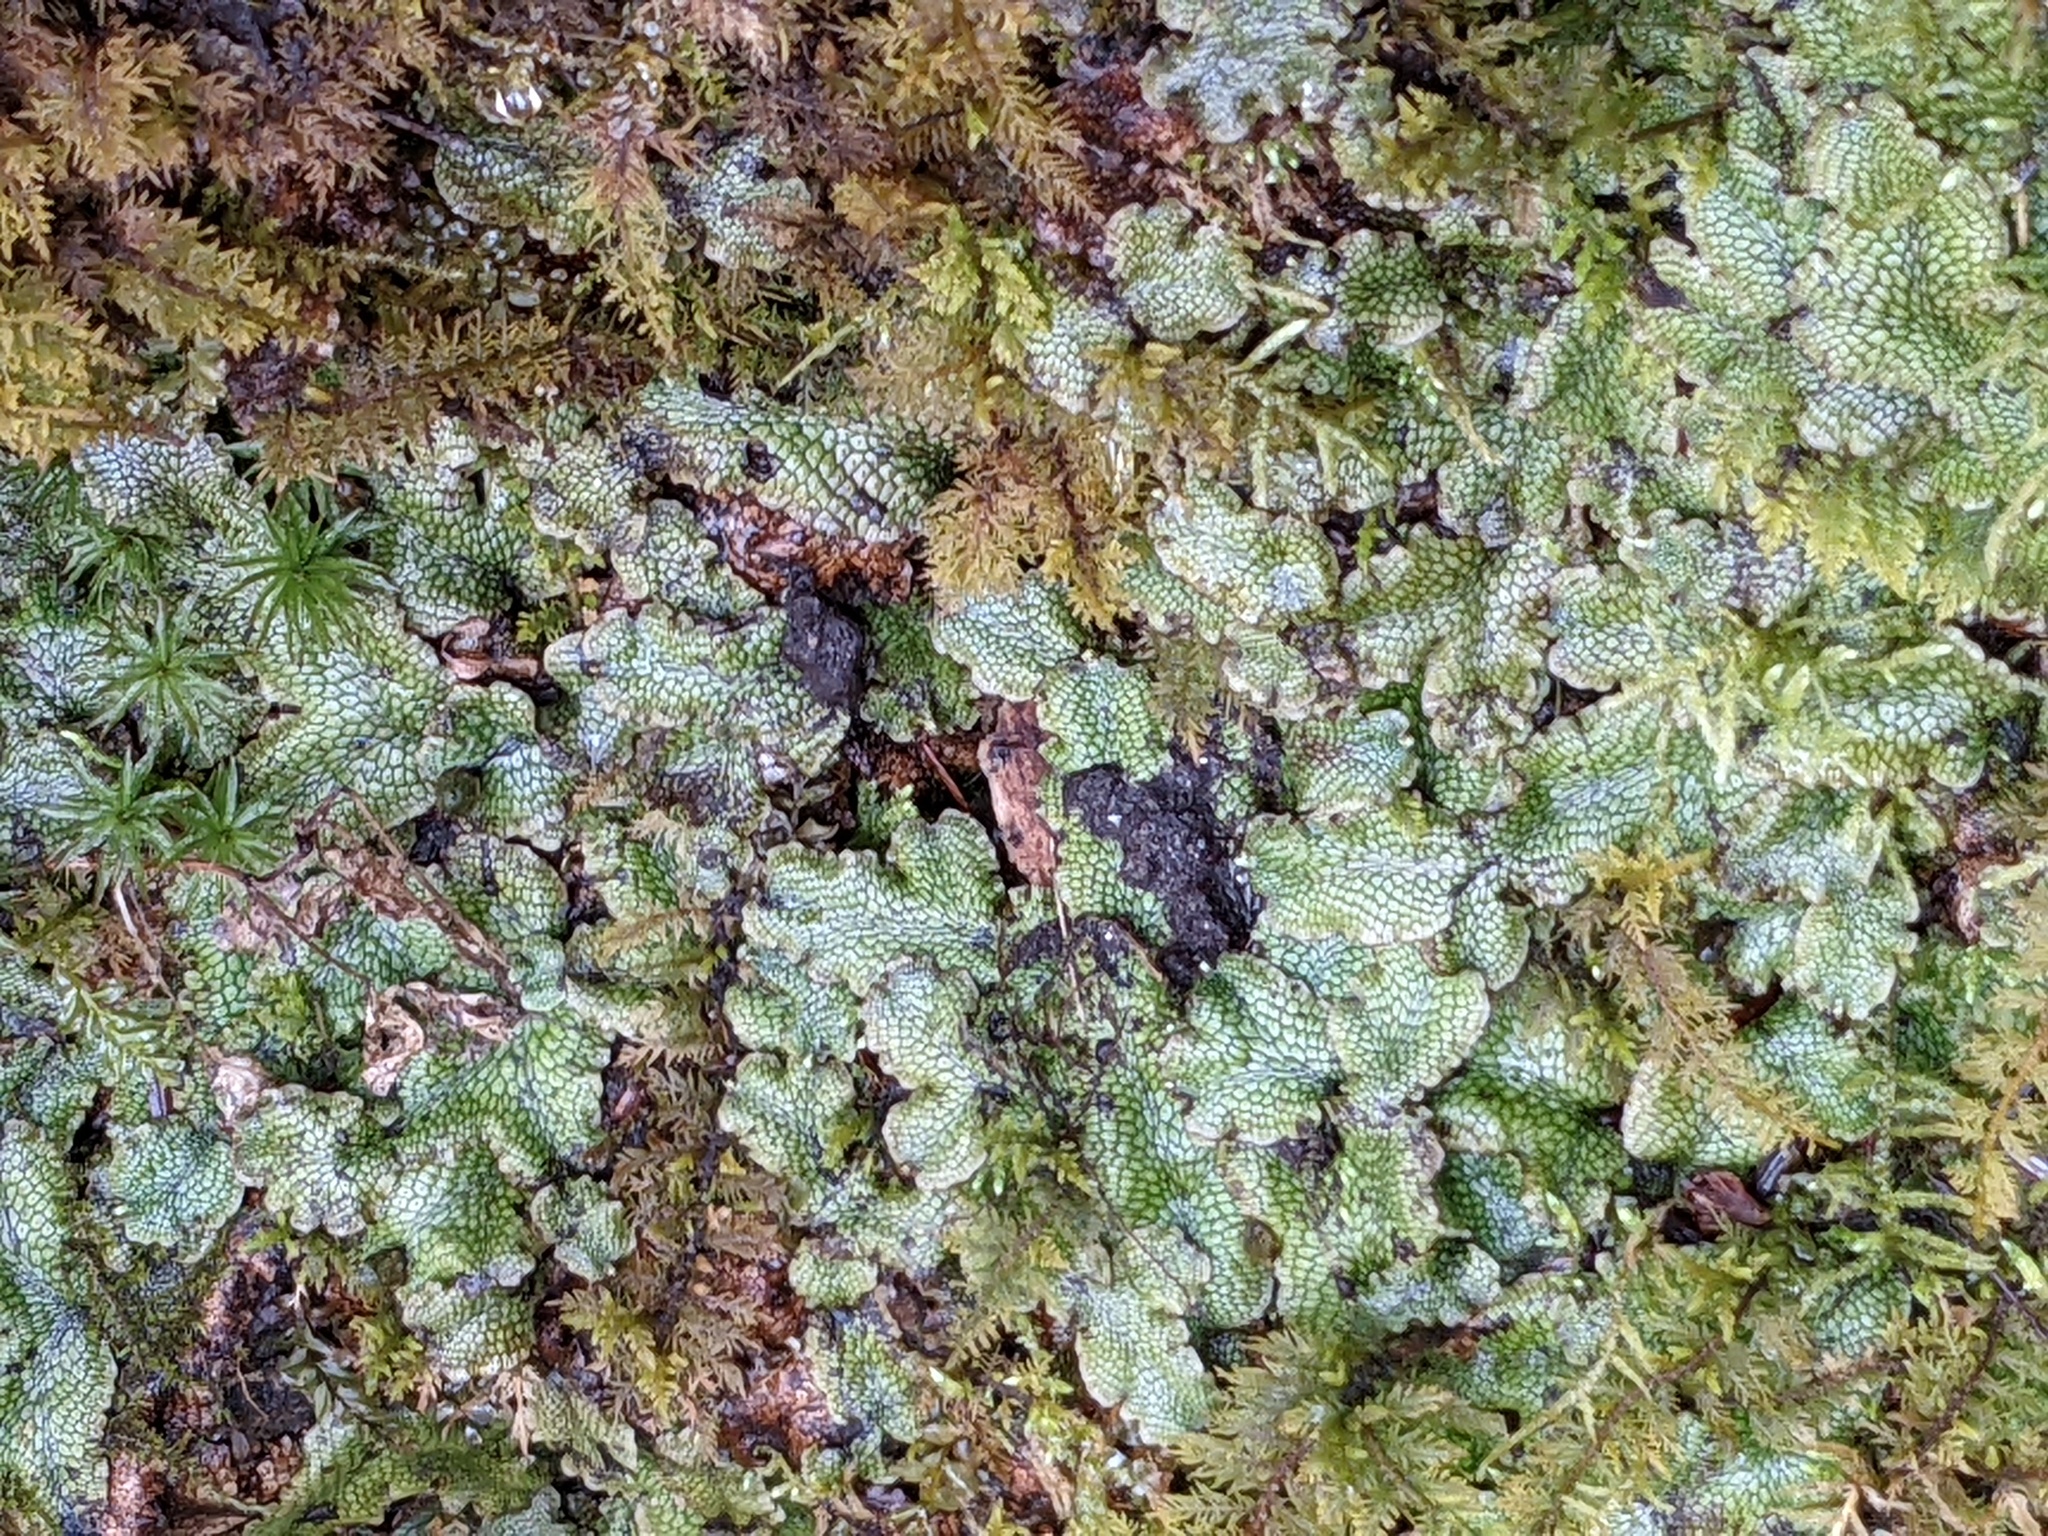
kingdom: Plantae
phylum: Marchantiophyta
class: Marchantiopsida
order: Marchantiales
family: Conocephalaceae
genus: Conocephalum
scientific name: Conocephalum salebrosum
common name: Cat-tongue liverwort
